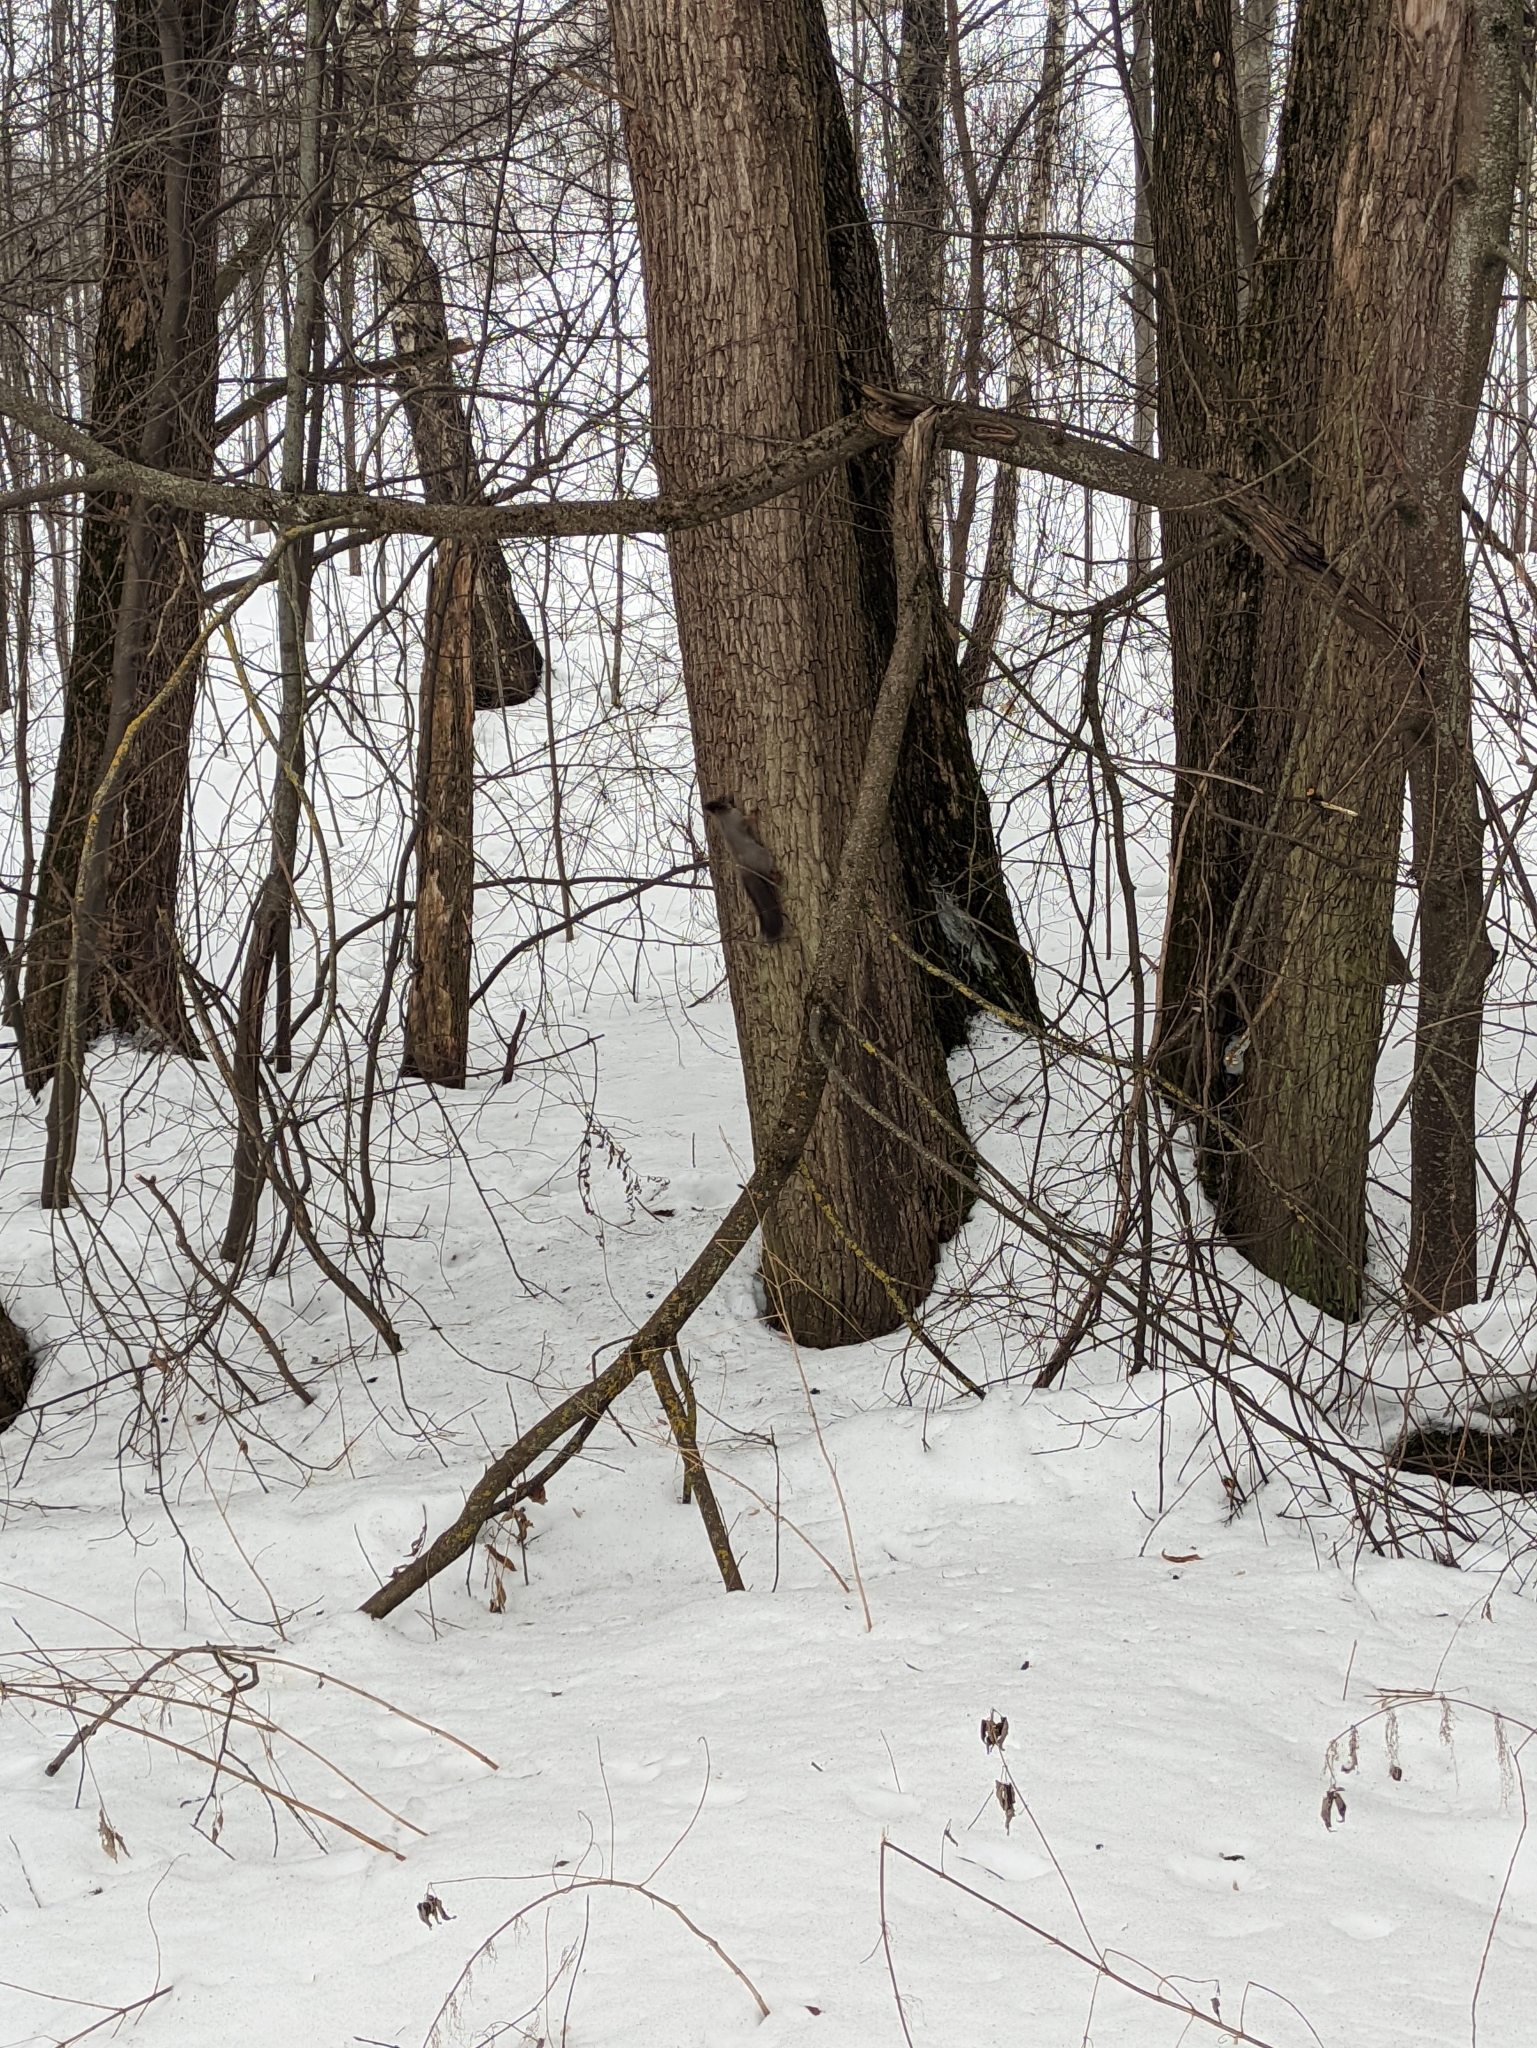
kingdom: Animalia
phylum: Chordata
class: Mammalia
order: Rodentia
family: Sciuridae
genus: Sciurus
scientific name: Sciurus vulgaris
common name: Eurasian red squirrel
